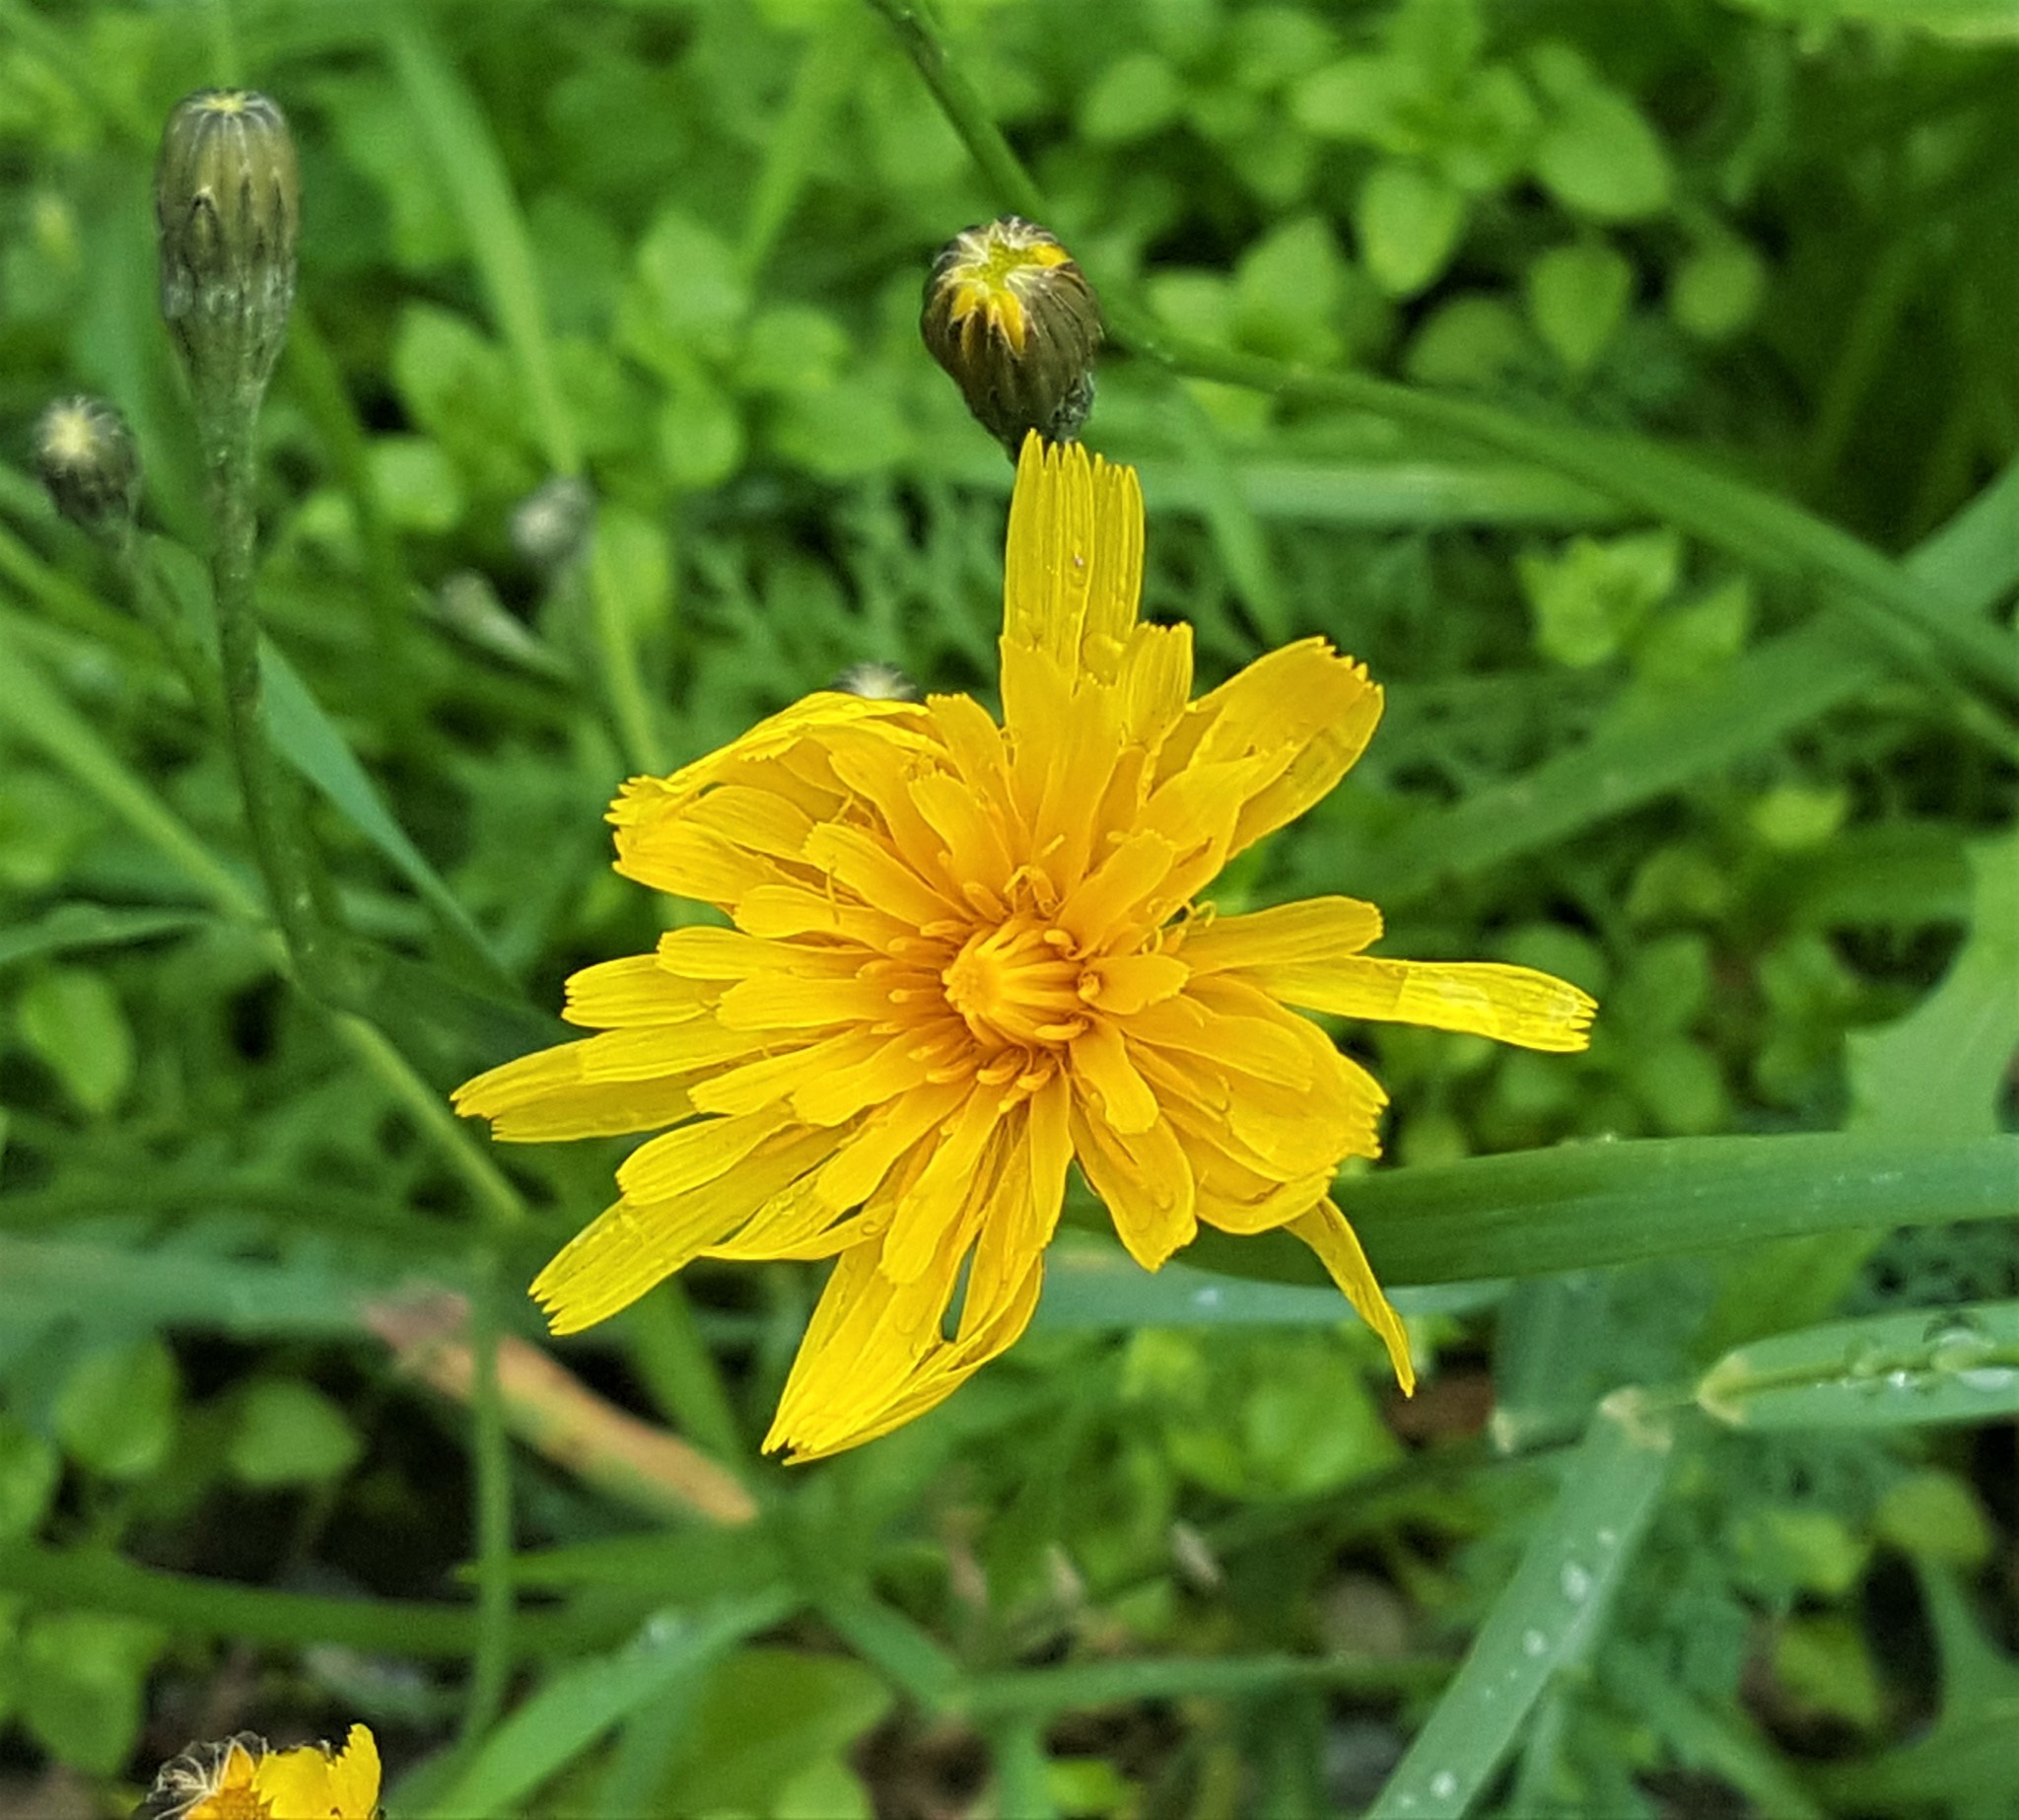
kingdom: Plantae
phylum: Tracheophyta
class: Magnoliopsida
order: Asterales
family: Asteraceae
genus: Scorzoneroides
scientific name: Scorzoneroides autumnalis
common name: Autumn hawkbit
